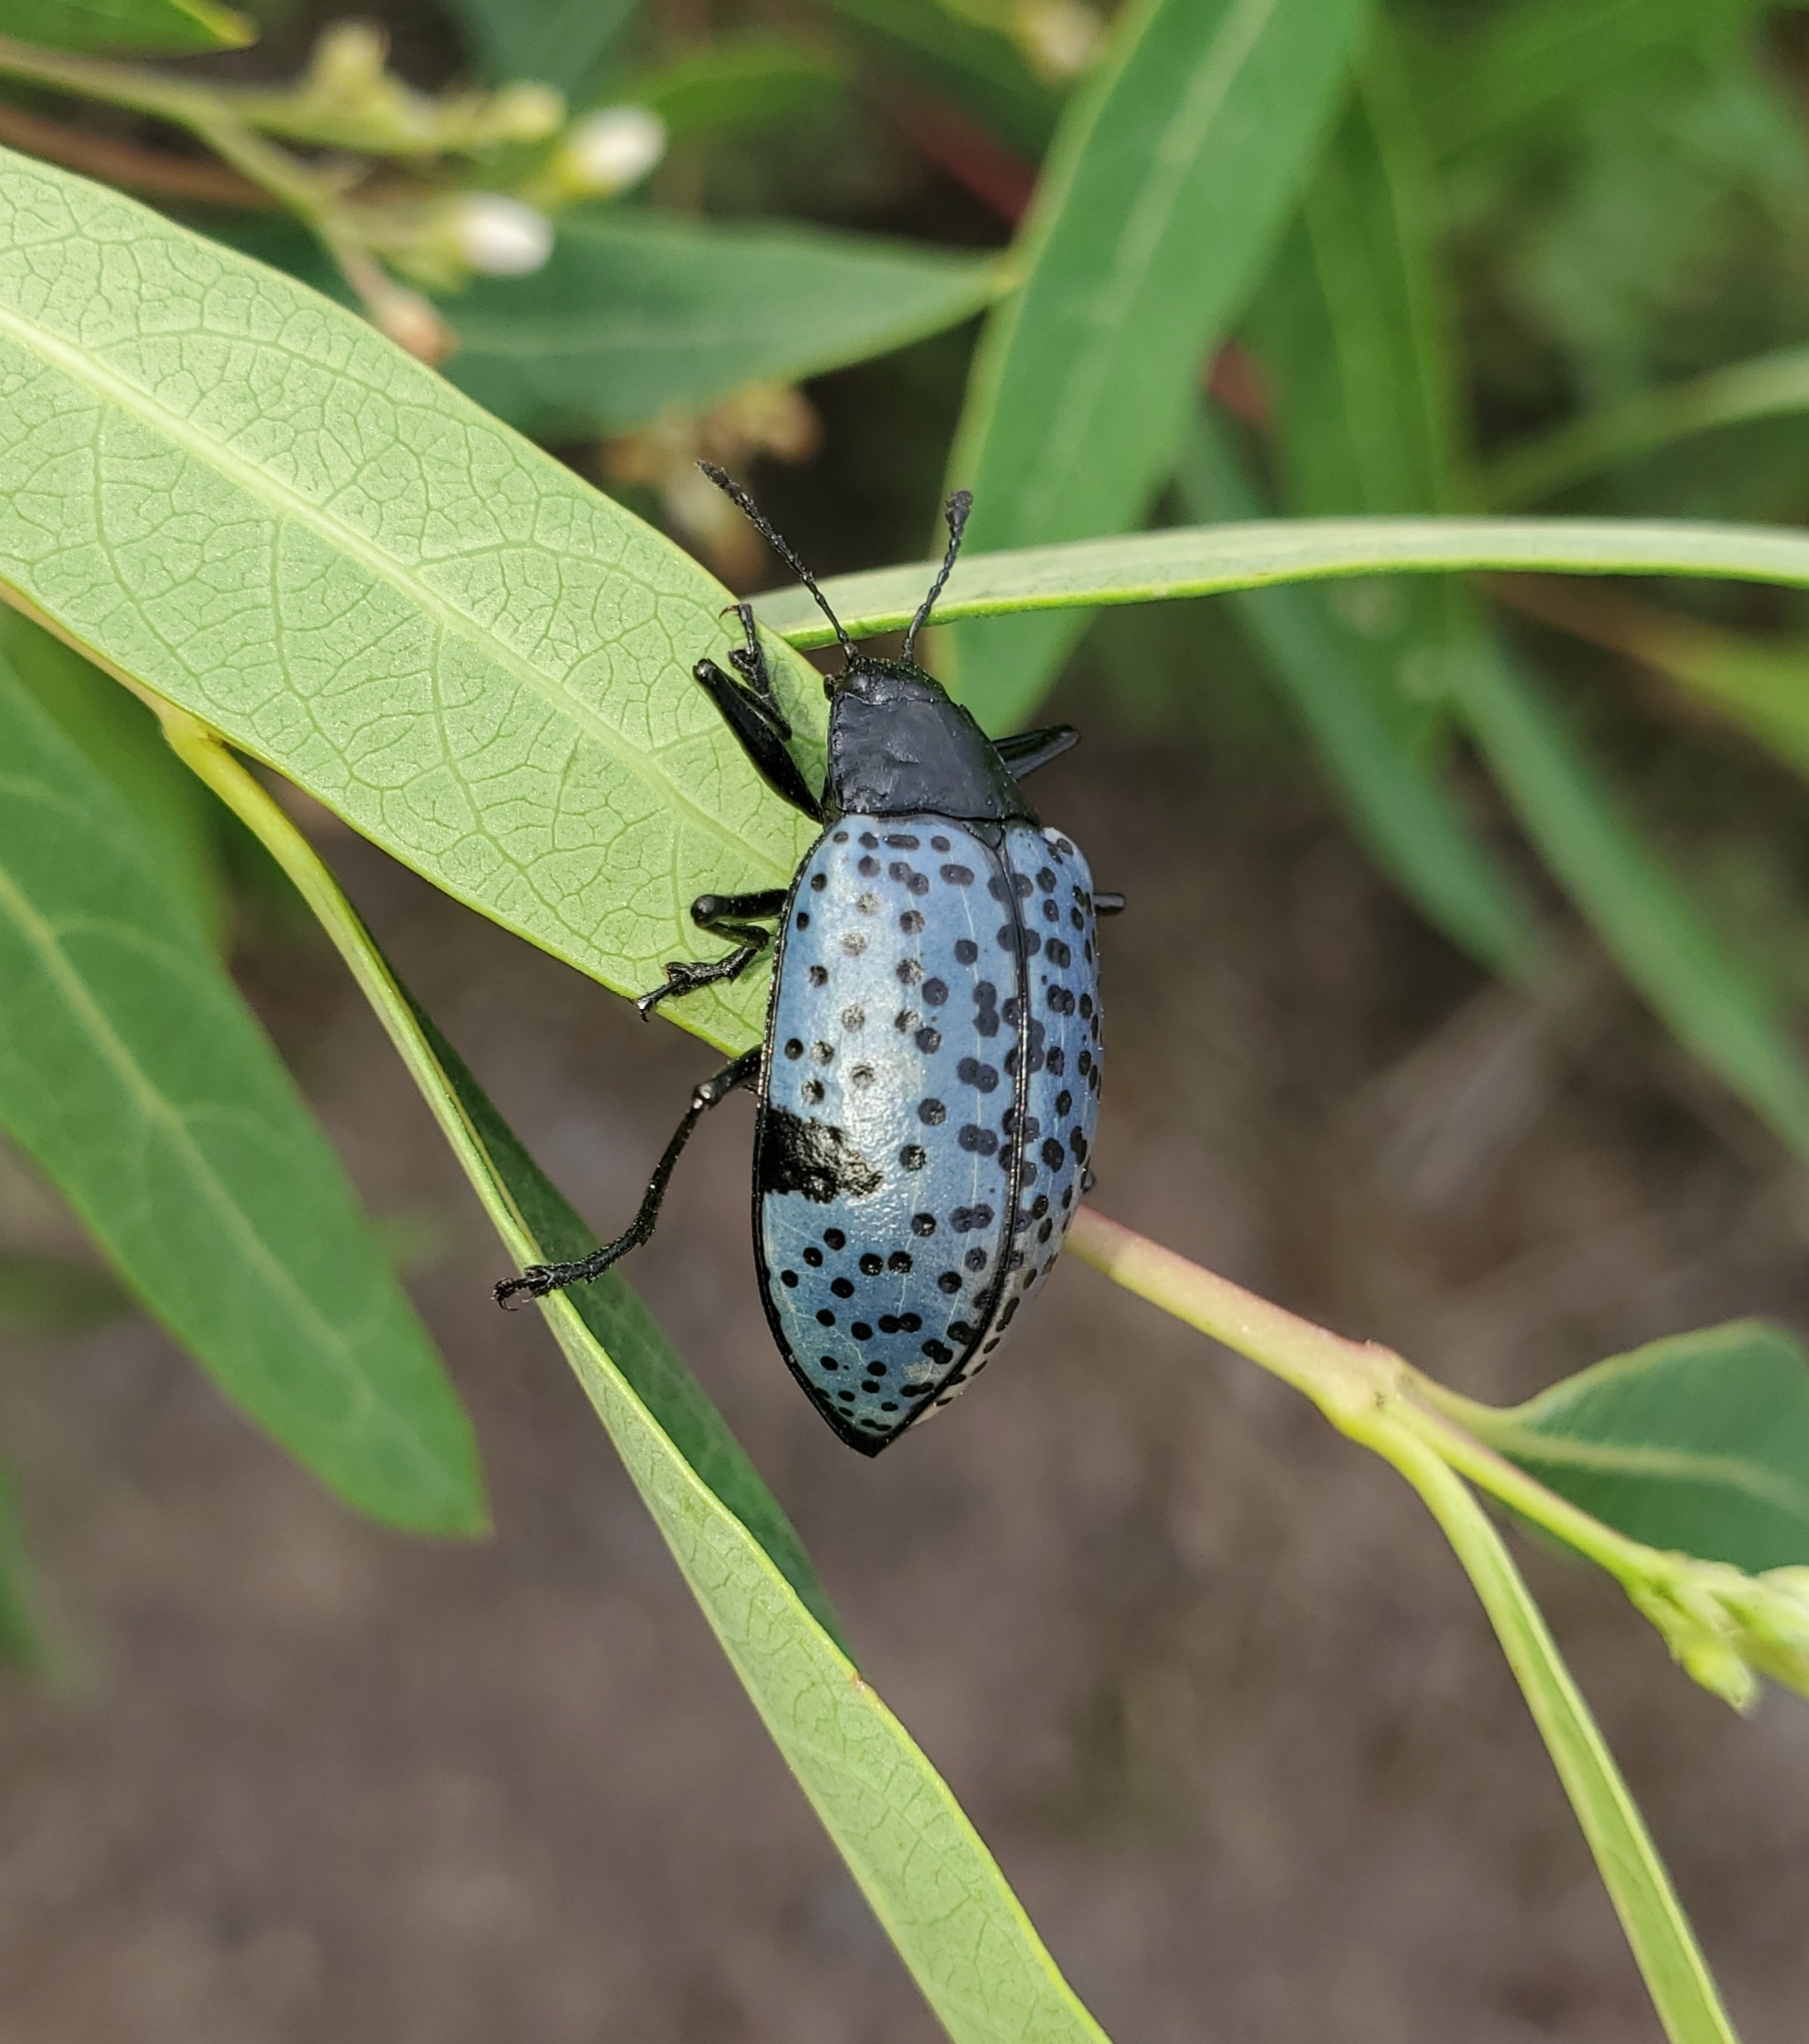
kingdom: Animalia
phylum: Arthropoda
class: Insecta
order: Coleoptera
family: Erotylidae
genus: Gibbifer
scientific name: Gibbifer californicus
